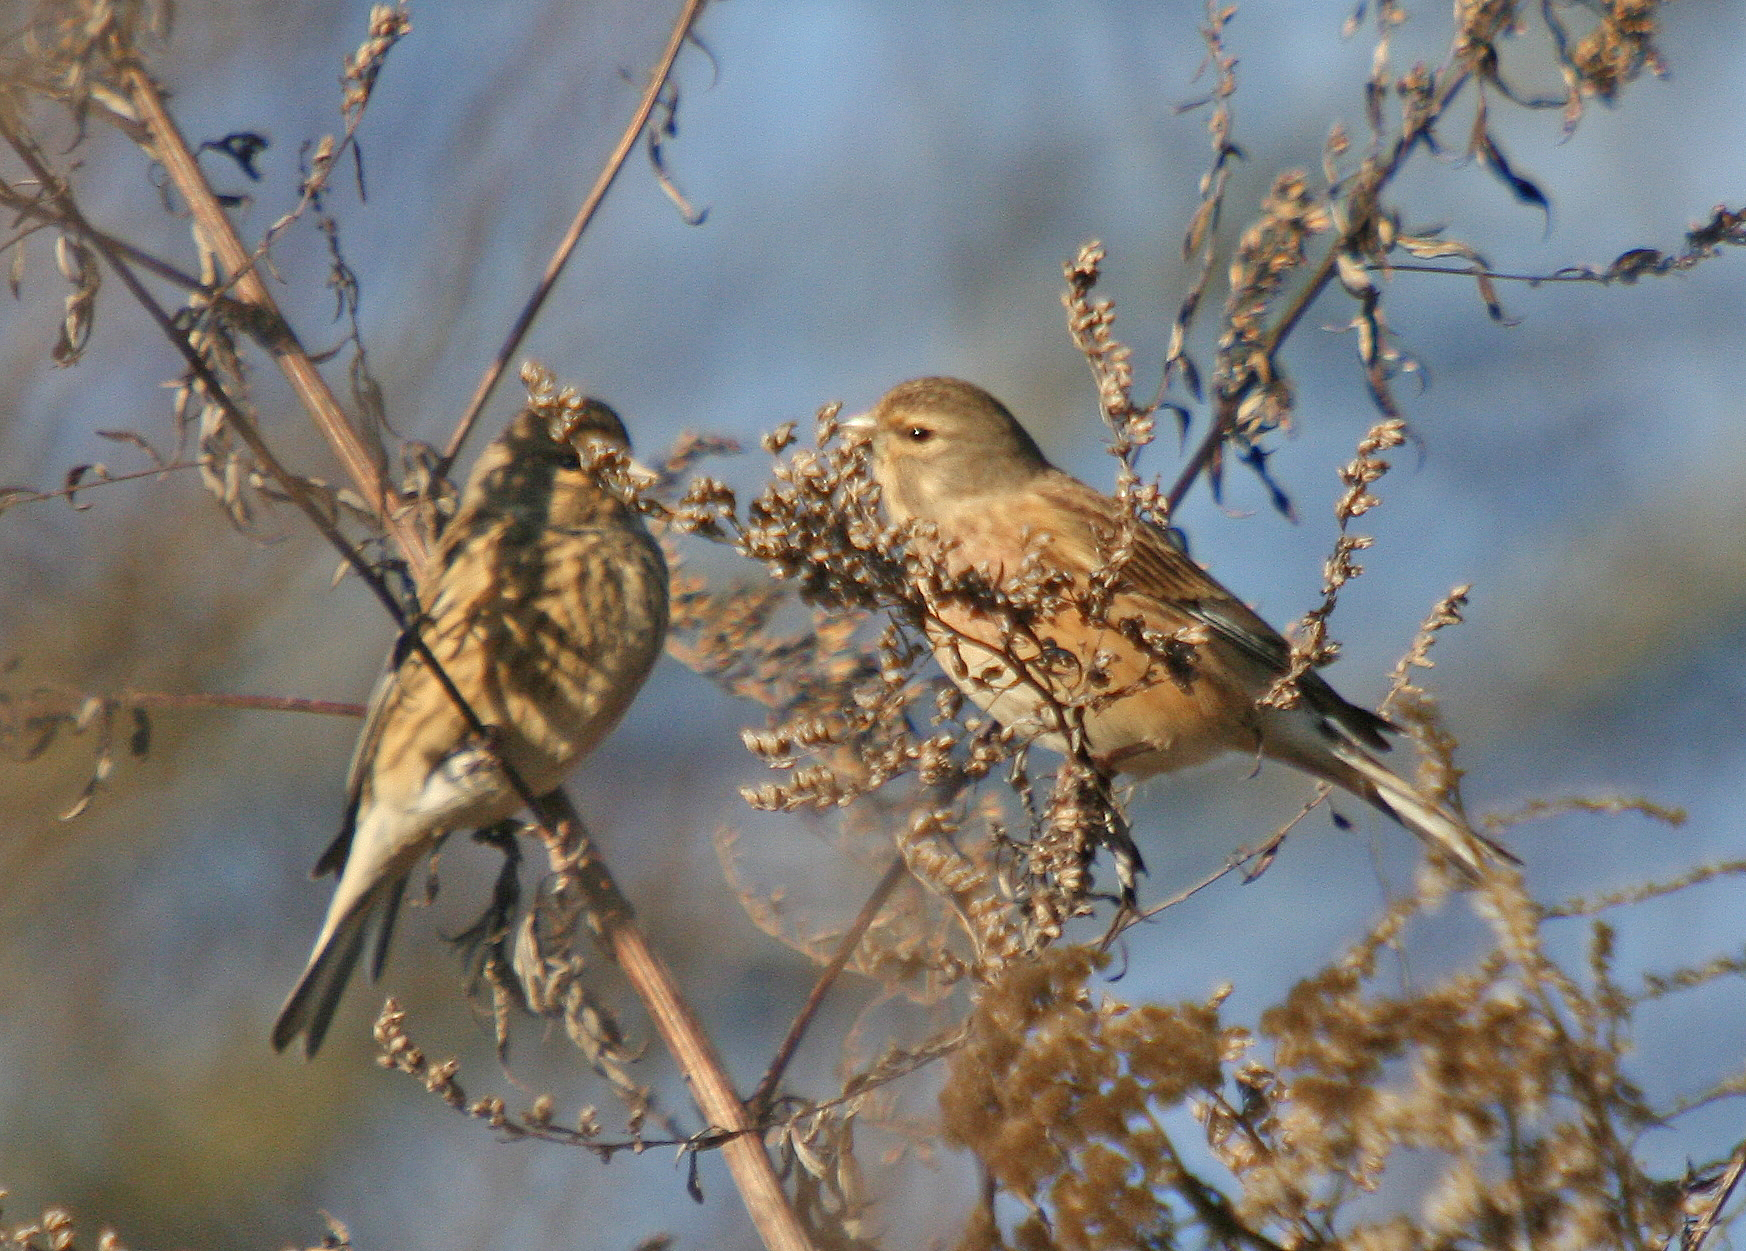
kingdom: Animalia
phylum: Chordata
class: Aves
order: Passeriformes
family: Fringillidae
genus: Linaria
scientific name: Linaria cannabina
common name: Common linnet
